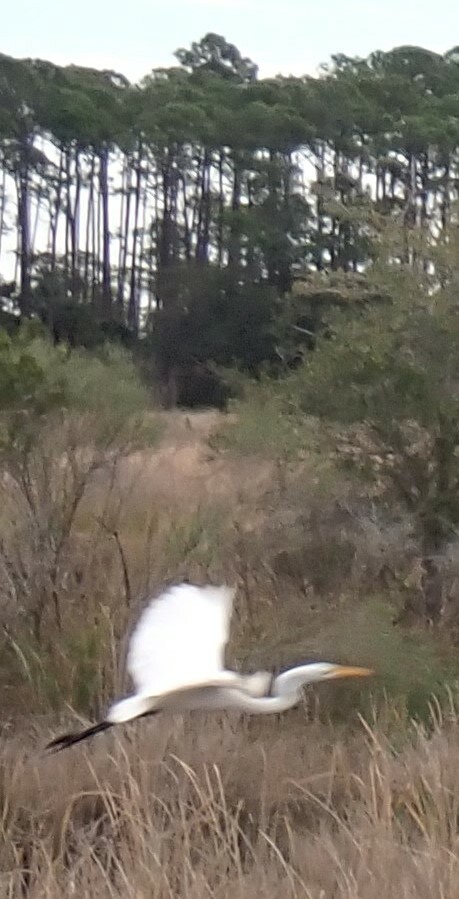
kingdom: Animalia
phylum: Chordata
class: Aves
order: Pelecaniformes
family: Ardeidae
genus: Ardea
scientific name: Ardea alba
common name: Great egret
